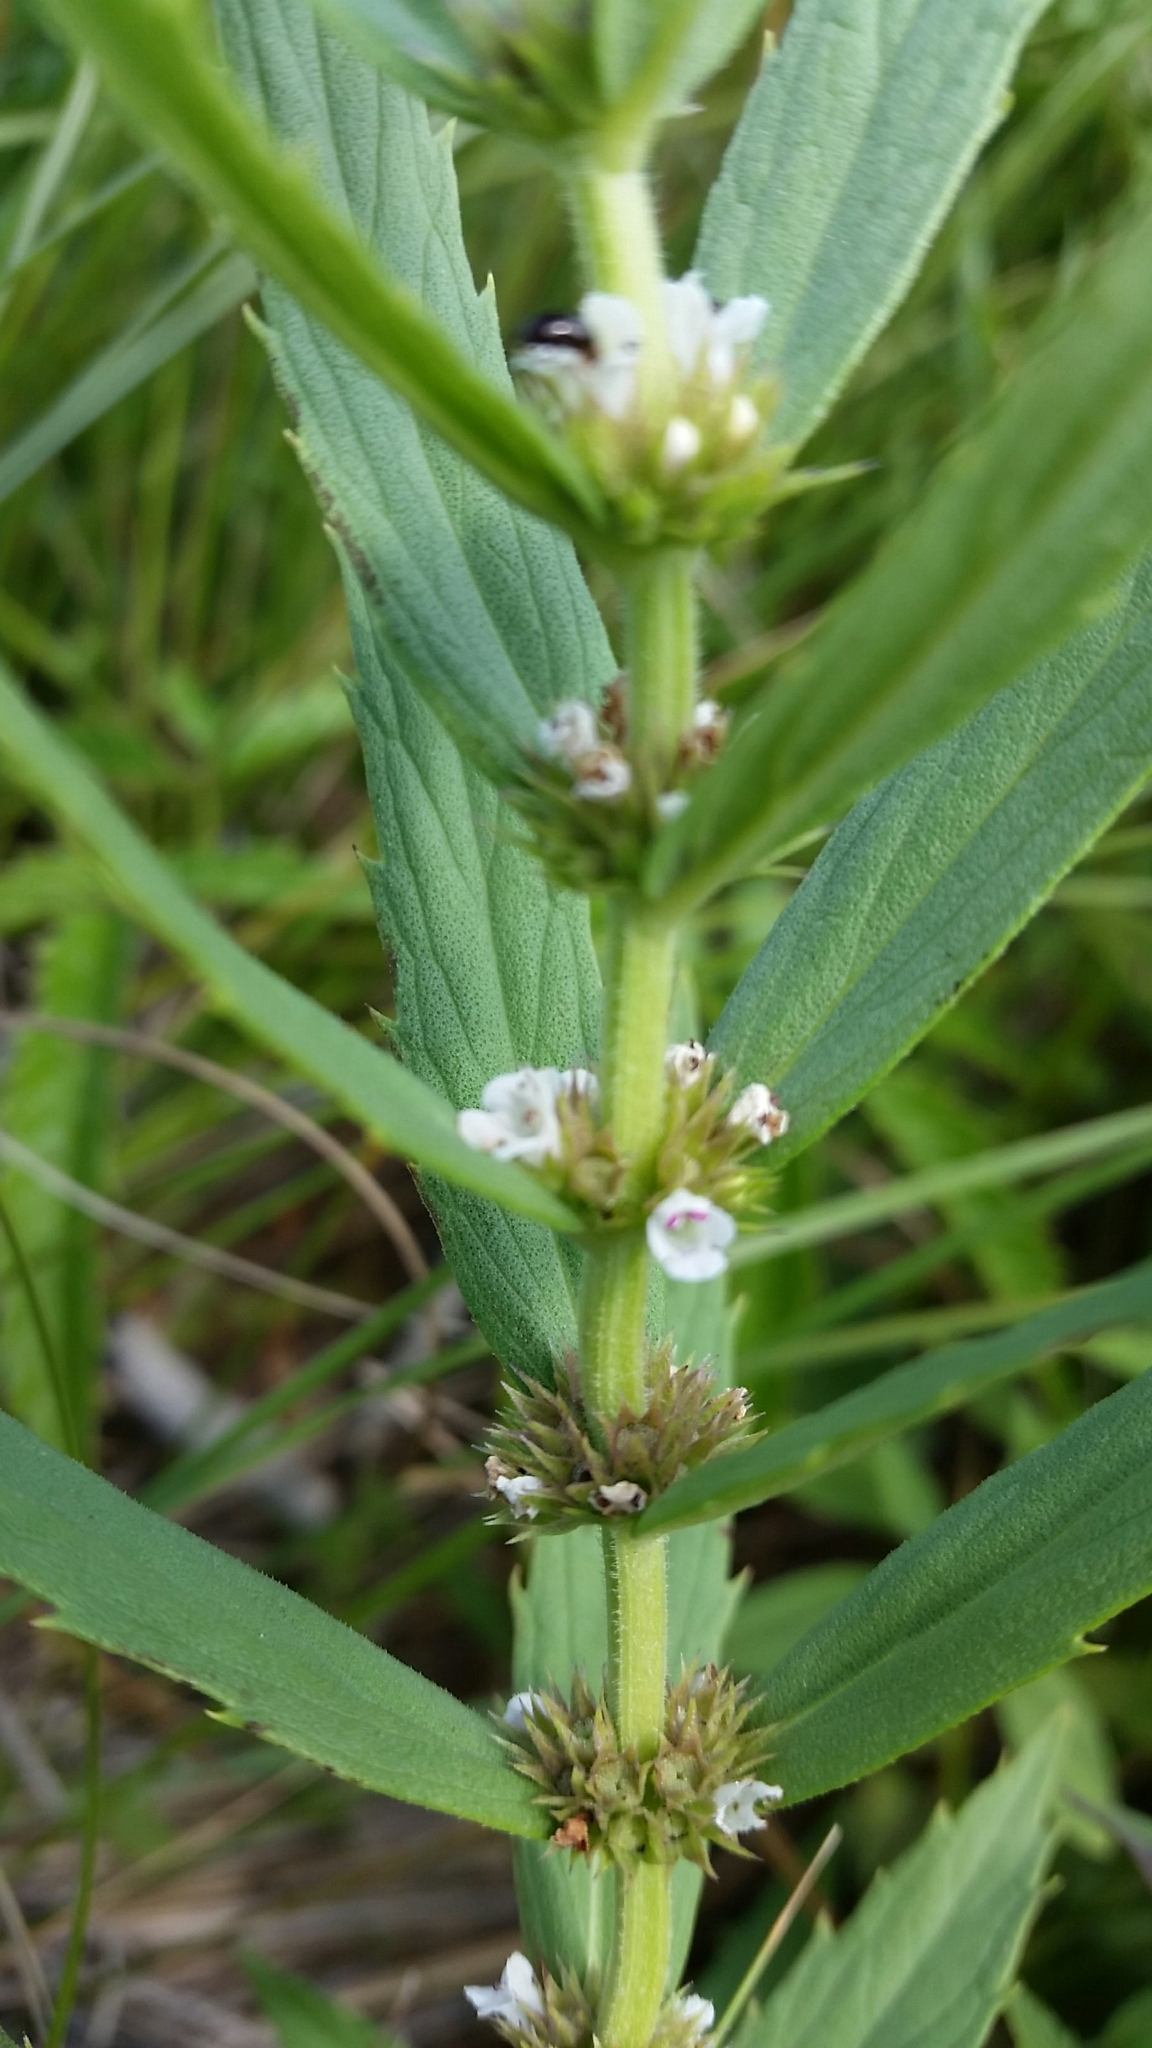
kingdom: Plantae
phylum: Tracheophyta
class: Magnoliopsida
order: Lamiales
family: Lamiaceae
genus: Lycopus
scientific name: Lycopus americanus
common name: American bugleweed
